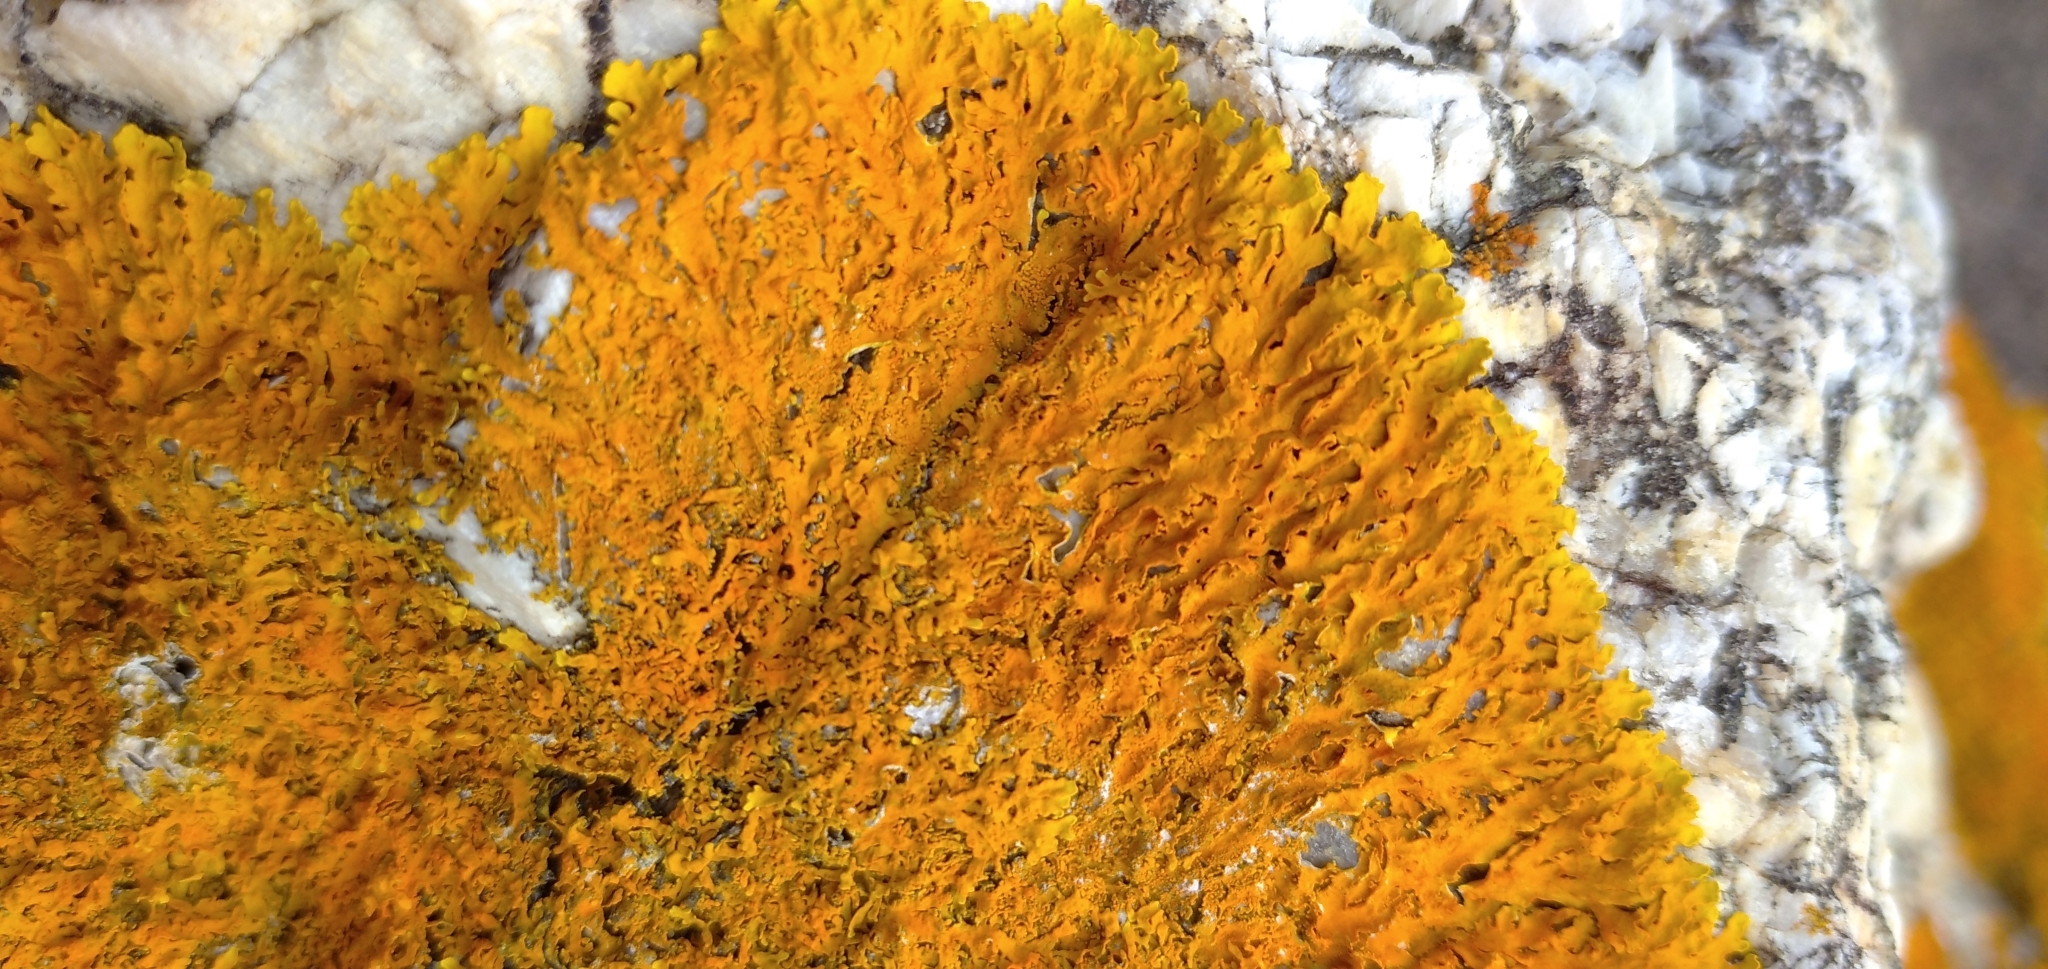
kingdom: Fungi
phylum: Ascomycota
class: Lecanoromycetes
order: Teloschistales
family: Teloschistaceae
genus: Xanthoria
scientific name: Xanthoria aureola
